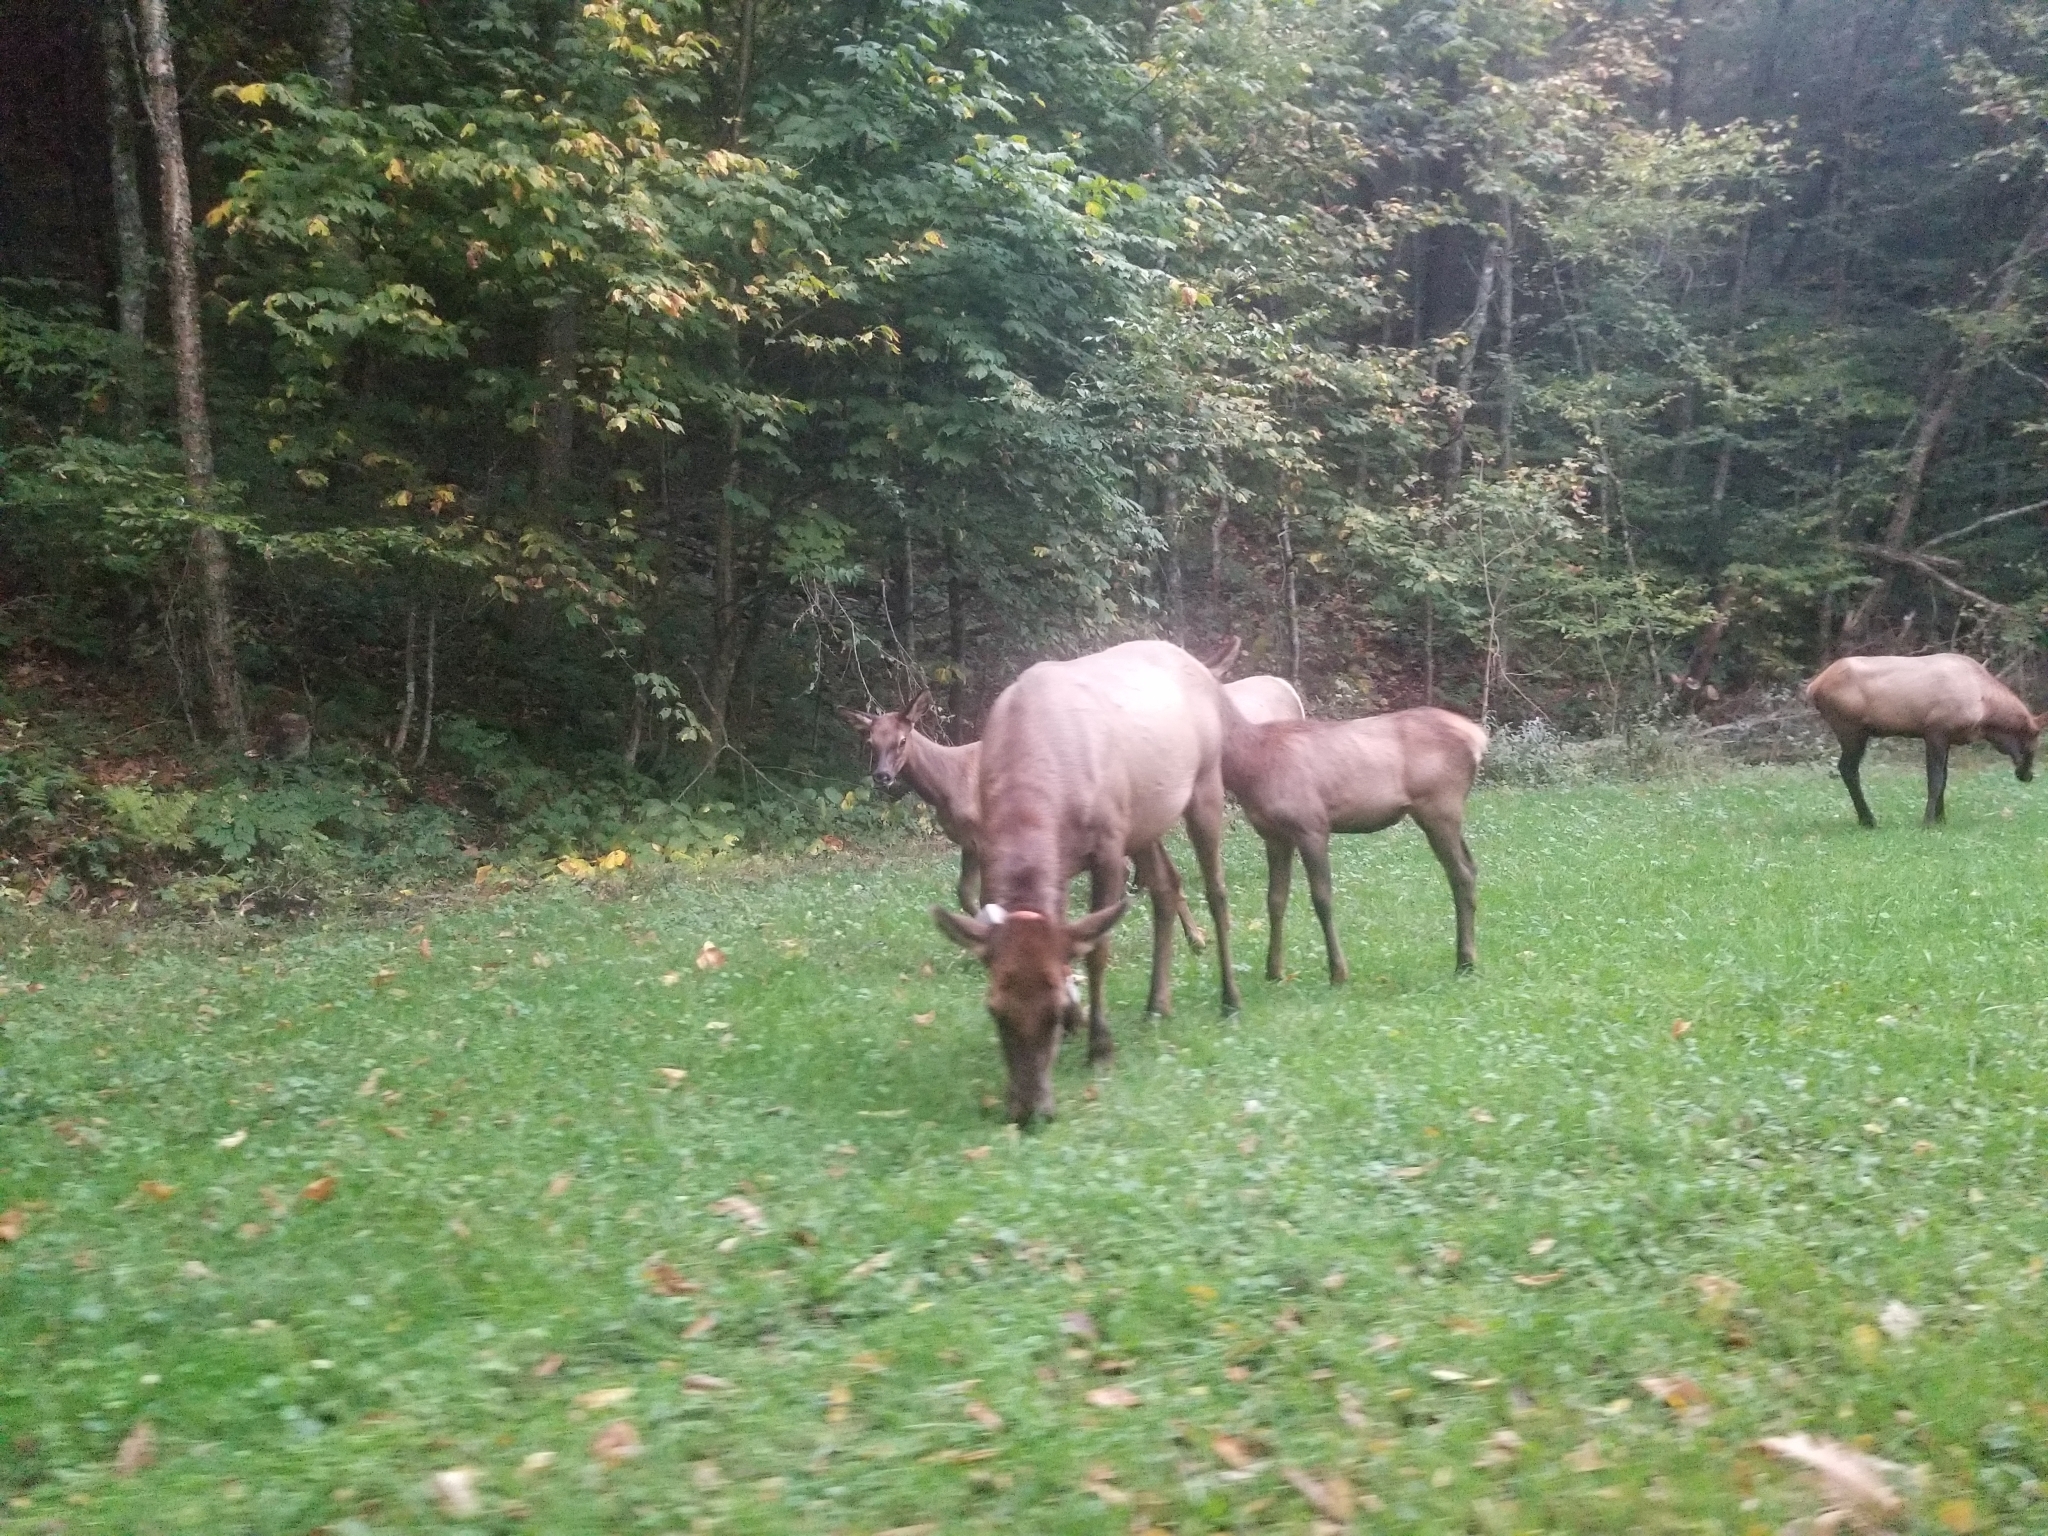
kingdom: Animalia
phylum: Chordata
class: Mammalia
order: Artiodactyla
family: Cervidae
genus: Cervus
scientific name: Cervus elaphus
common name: Red deer
